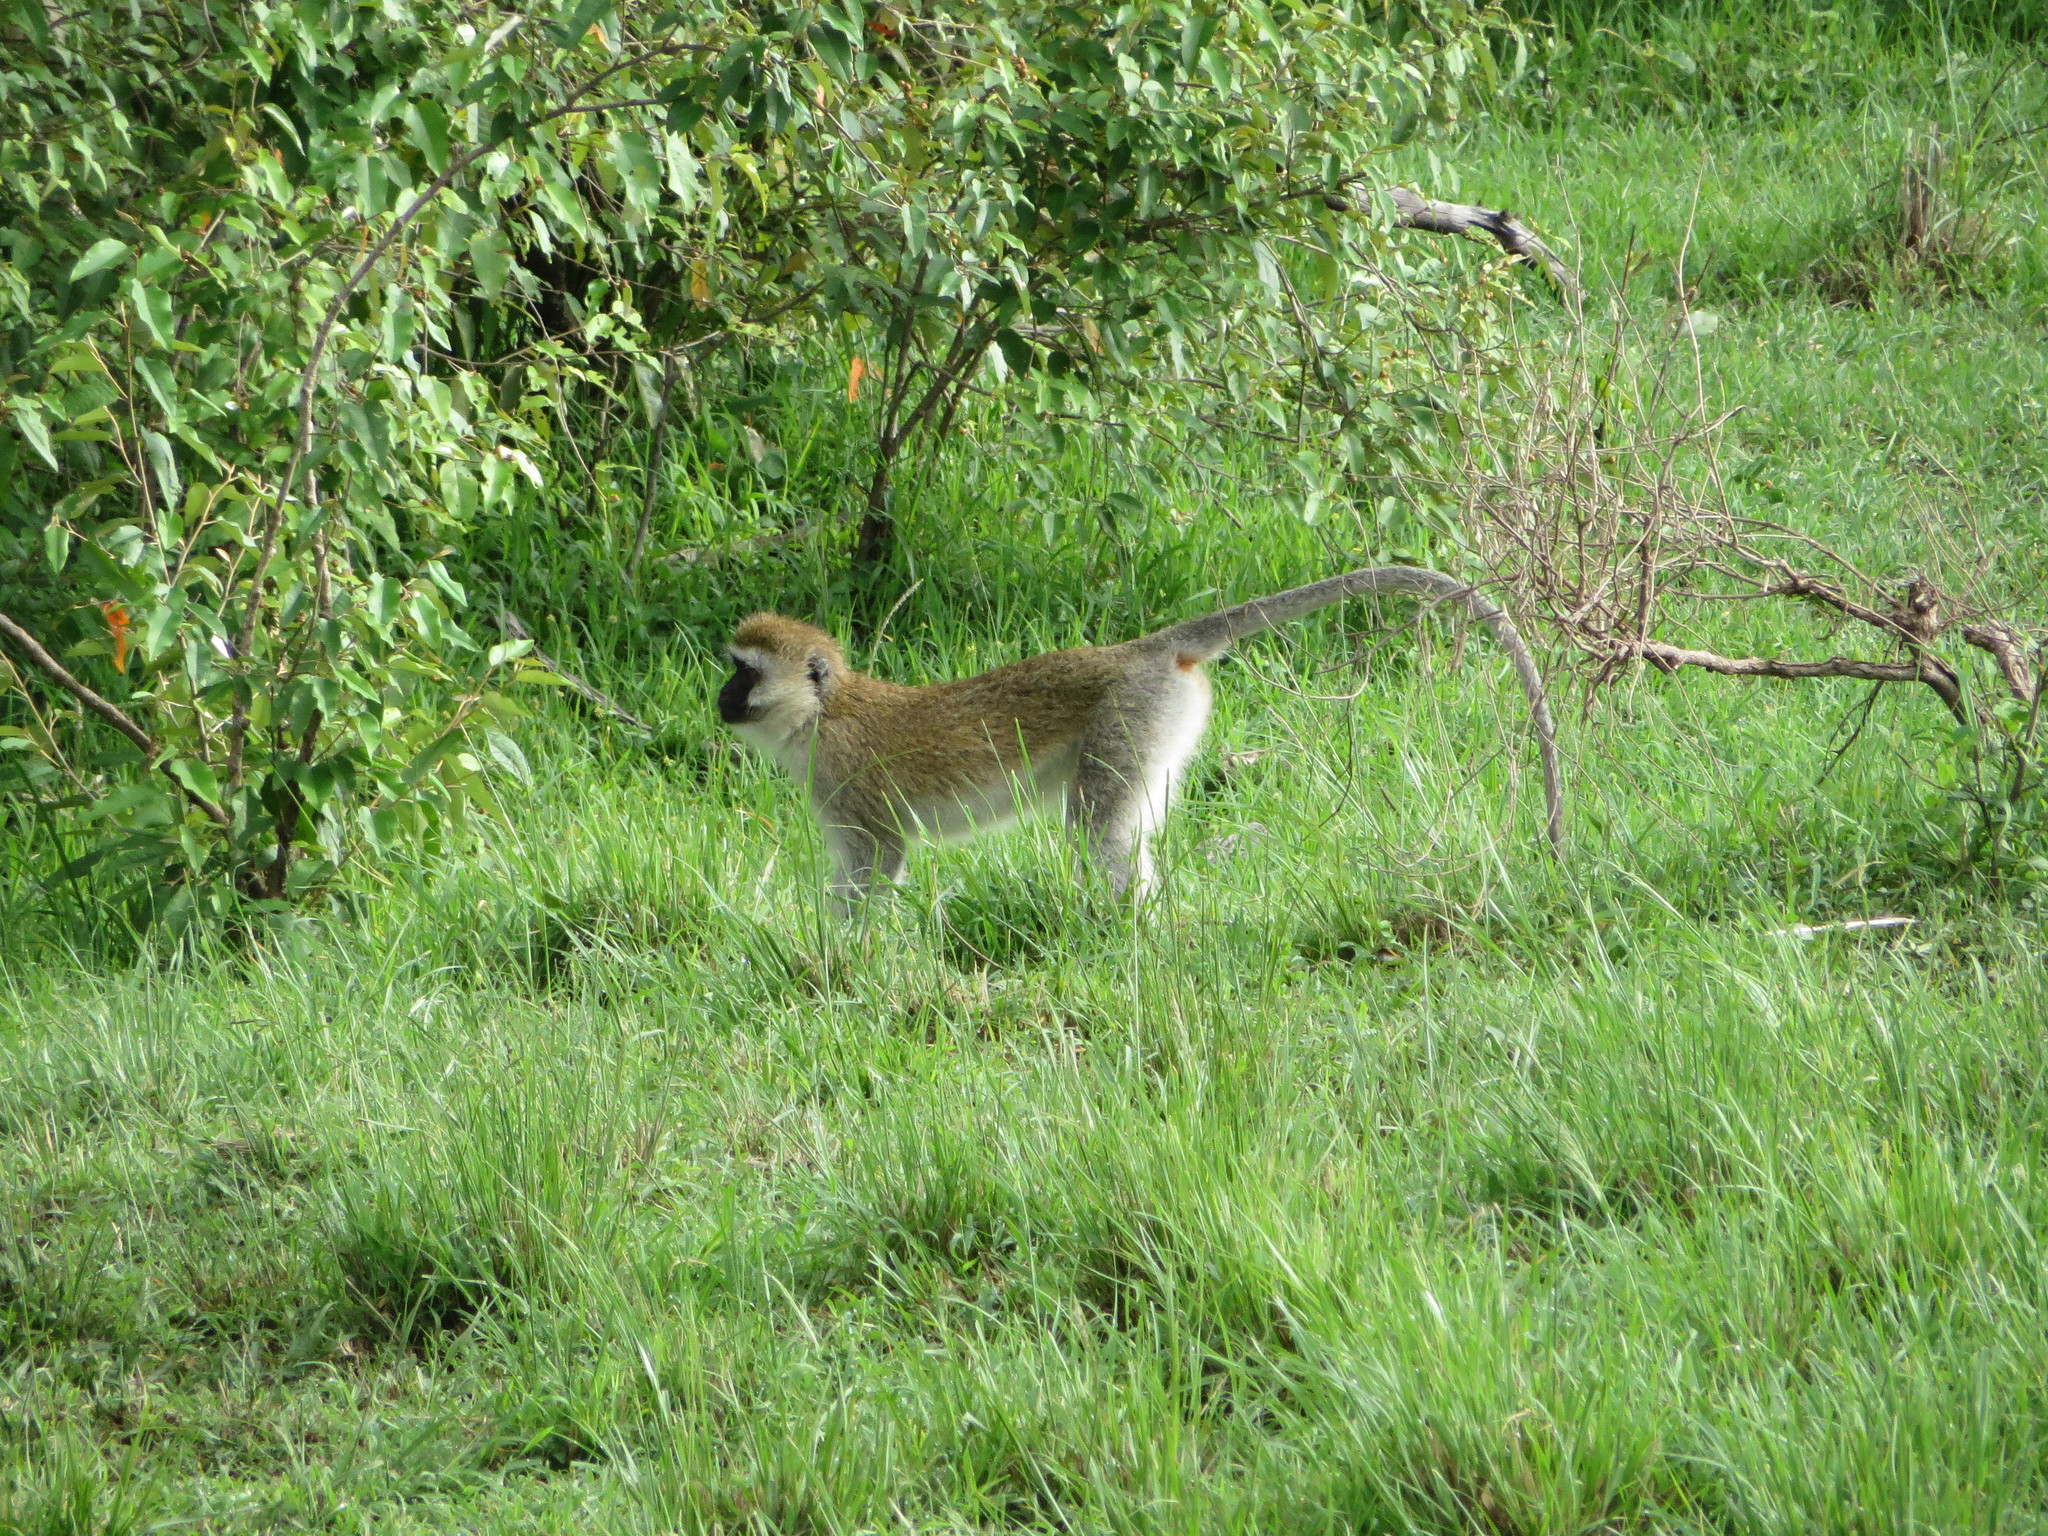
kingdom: Animalia
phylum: Chordata
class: Mammalia
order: Primates
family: Cercopithecidae
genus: Chlorocebus
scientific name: Chlorocebus pygerythrus
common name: Vervet monkey
